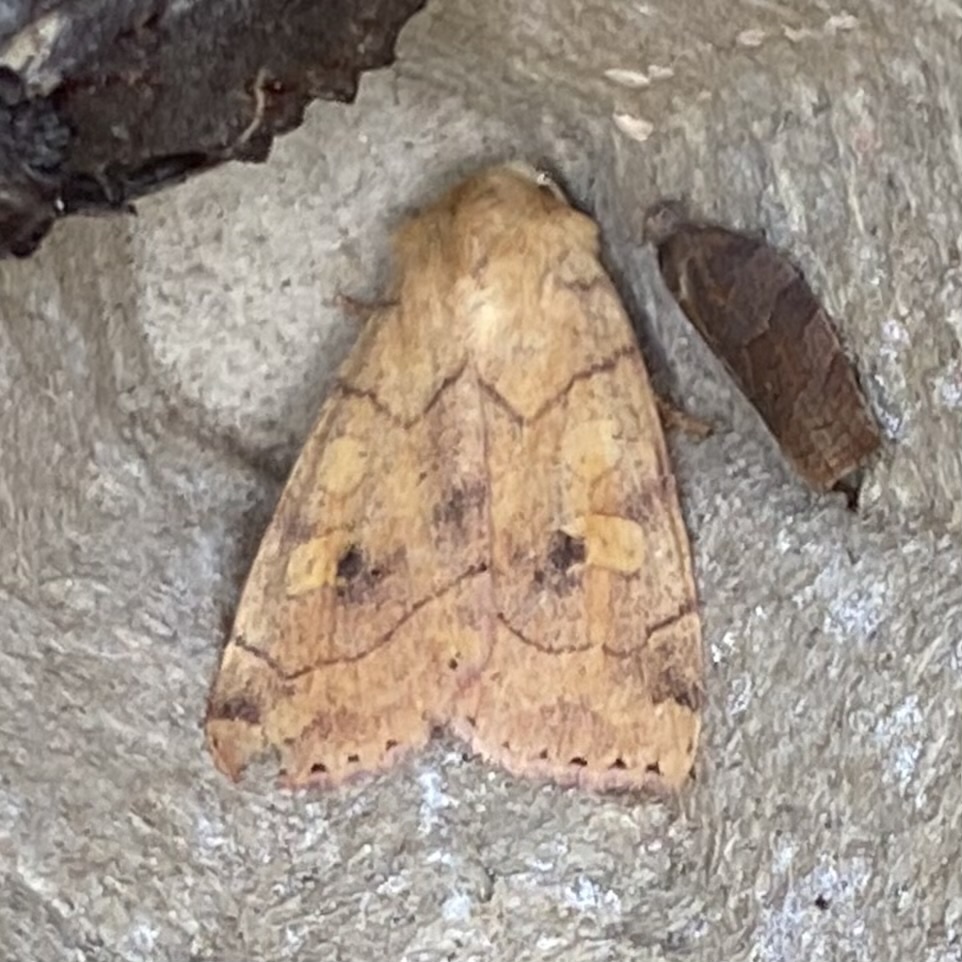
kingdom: Animalia
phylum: Arthropoda
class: Insecta
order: Lepidoptera
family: Noctuidae
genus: Enargia
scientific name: Enargia paleacea
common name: Angle-striped sallow
